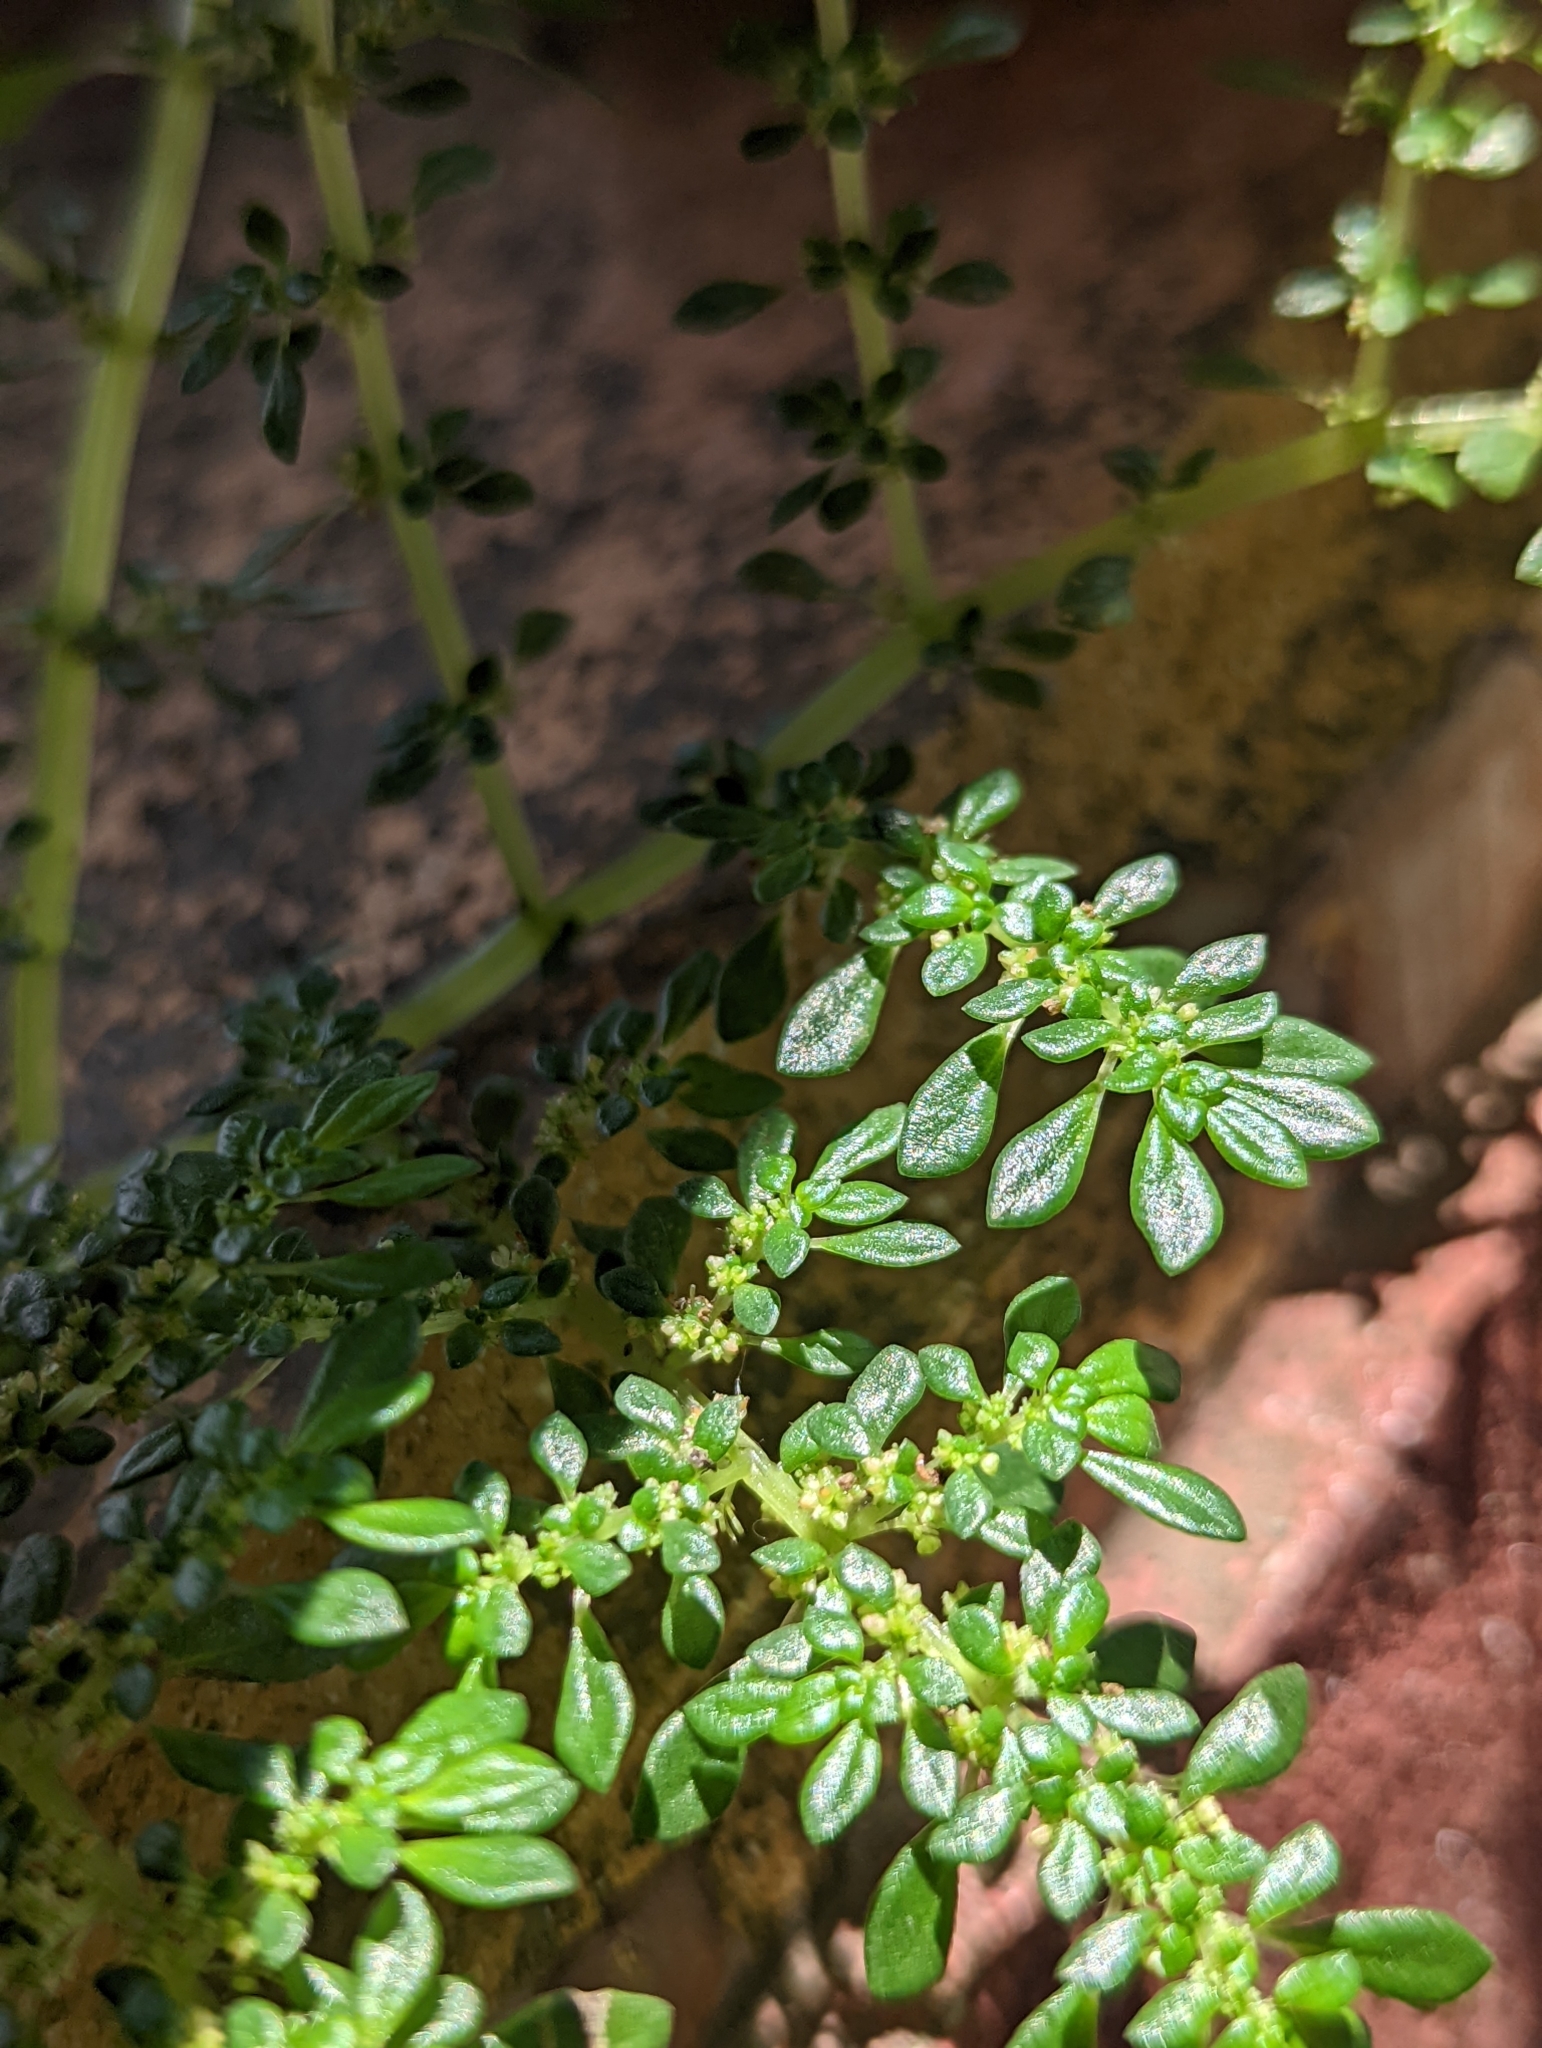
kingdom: Plantae
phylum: Tracheophyta
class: Magnoliopsida
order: Rosales
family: Urticaceae
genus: Pilea
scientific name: Pilea microphylla
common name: Artillery-plant
